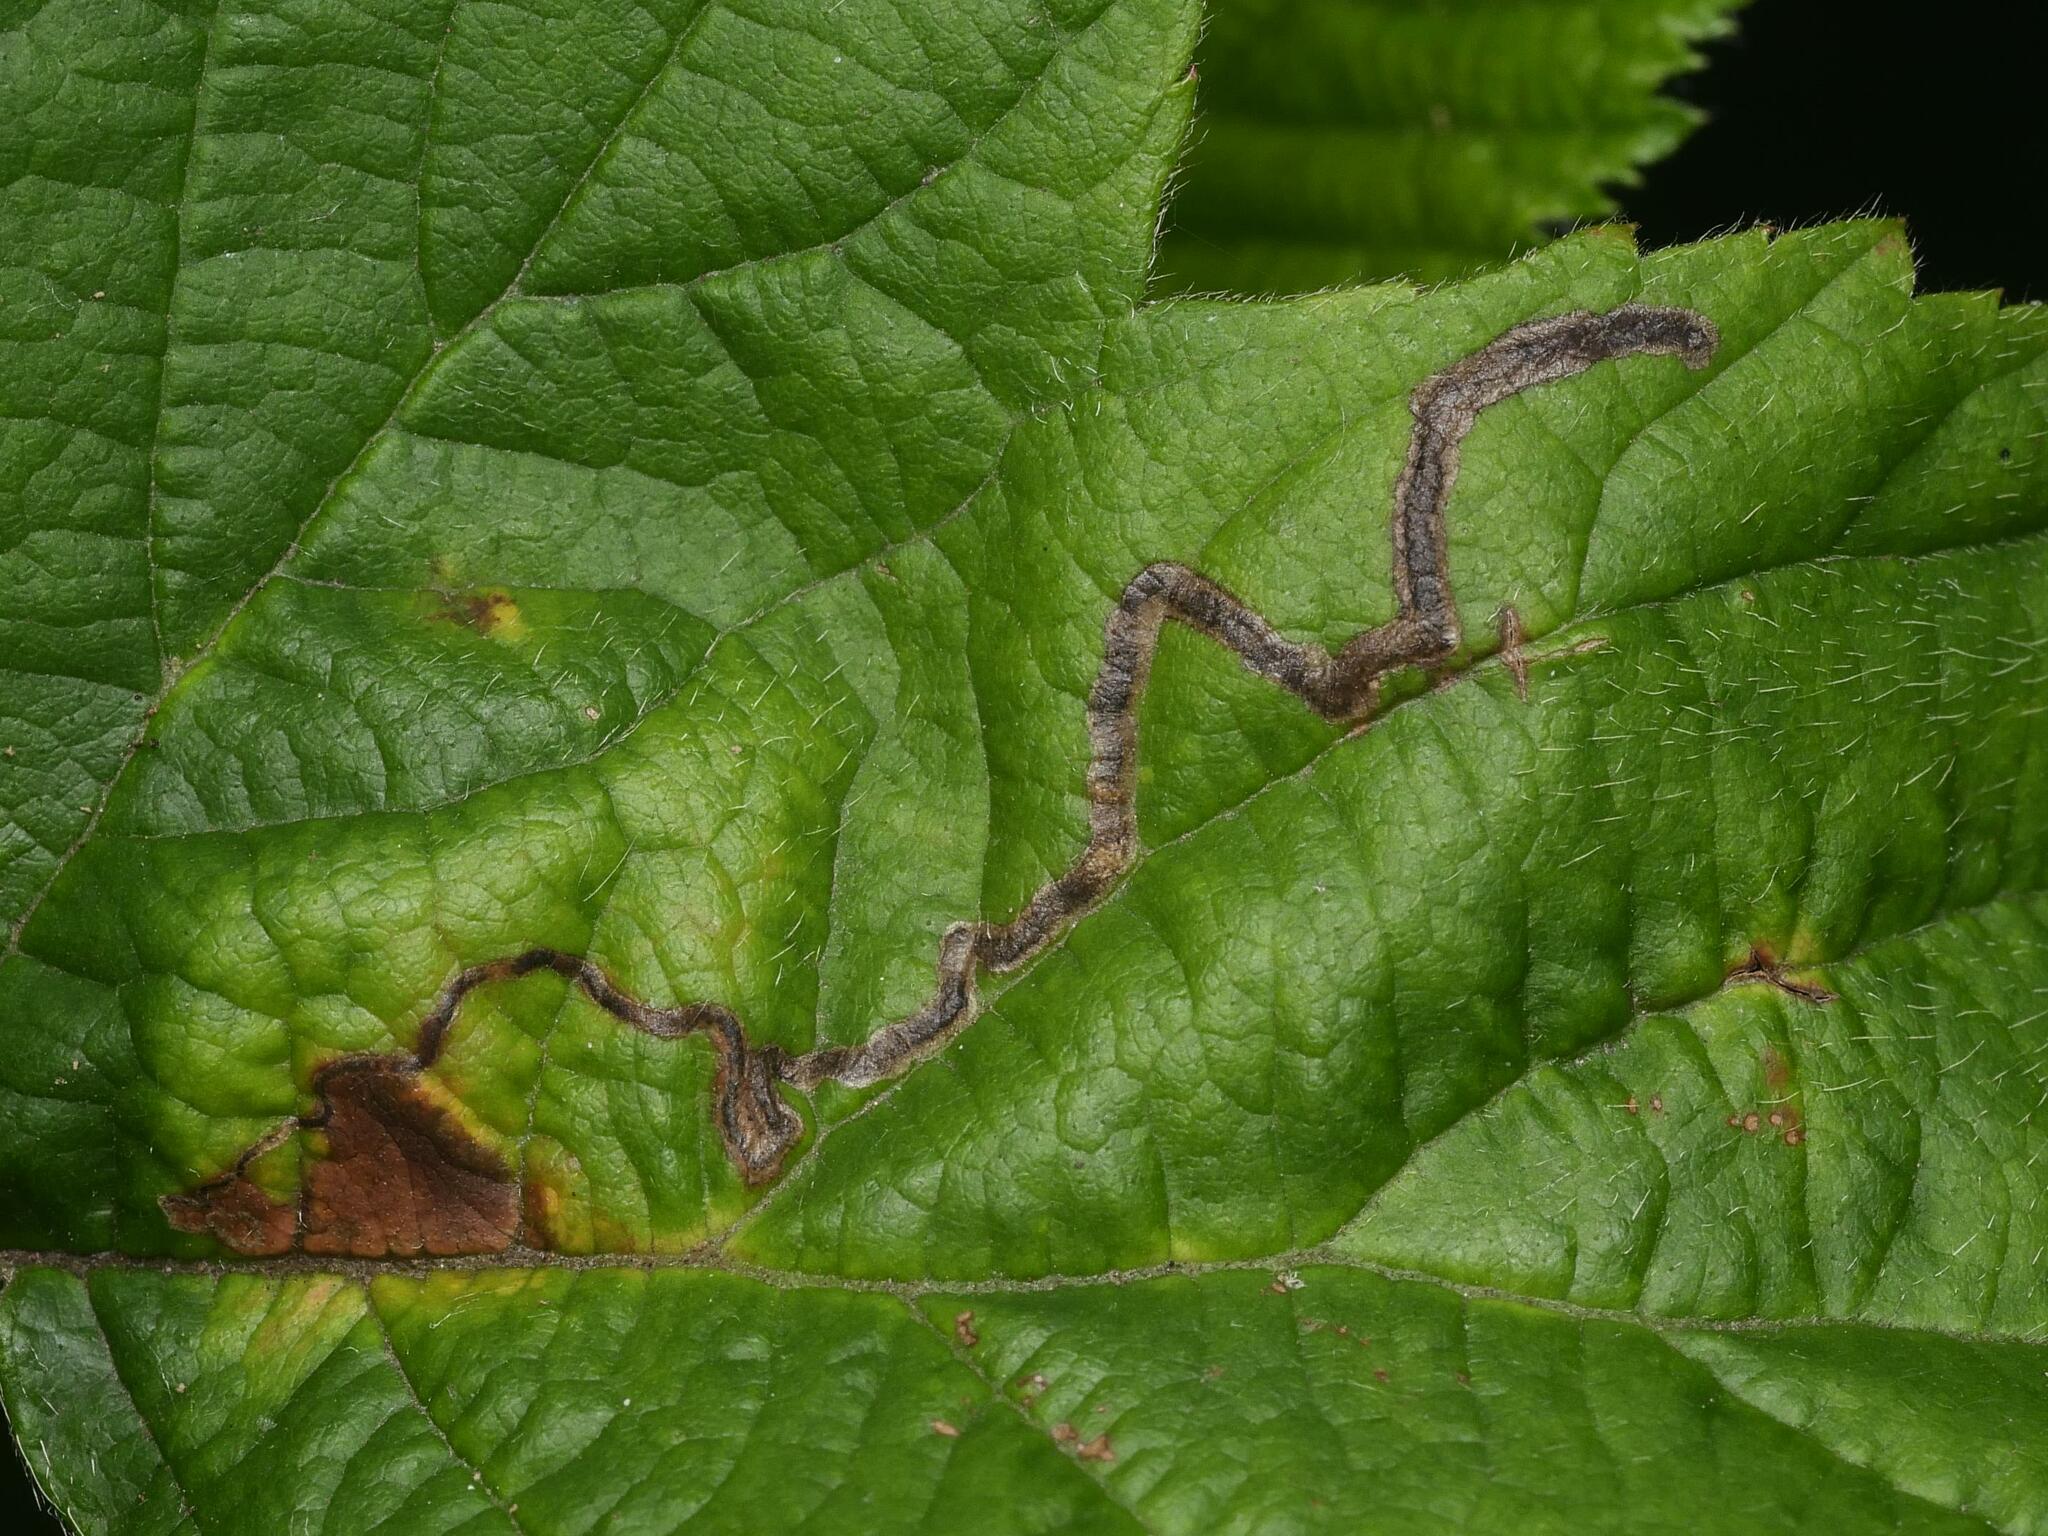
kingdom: Animalia
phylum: Arthropoda
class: Insecta
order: Lepidoptera
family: Nepticulidae
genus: Stigmella
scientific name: Stigmella aurella
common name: Golden pigmy
